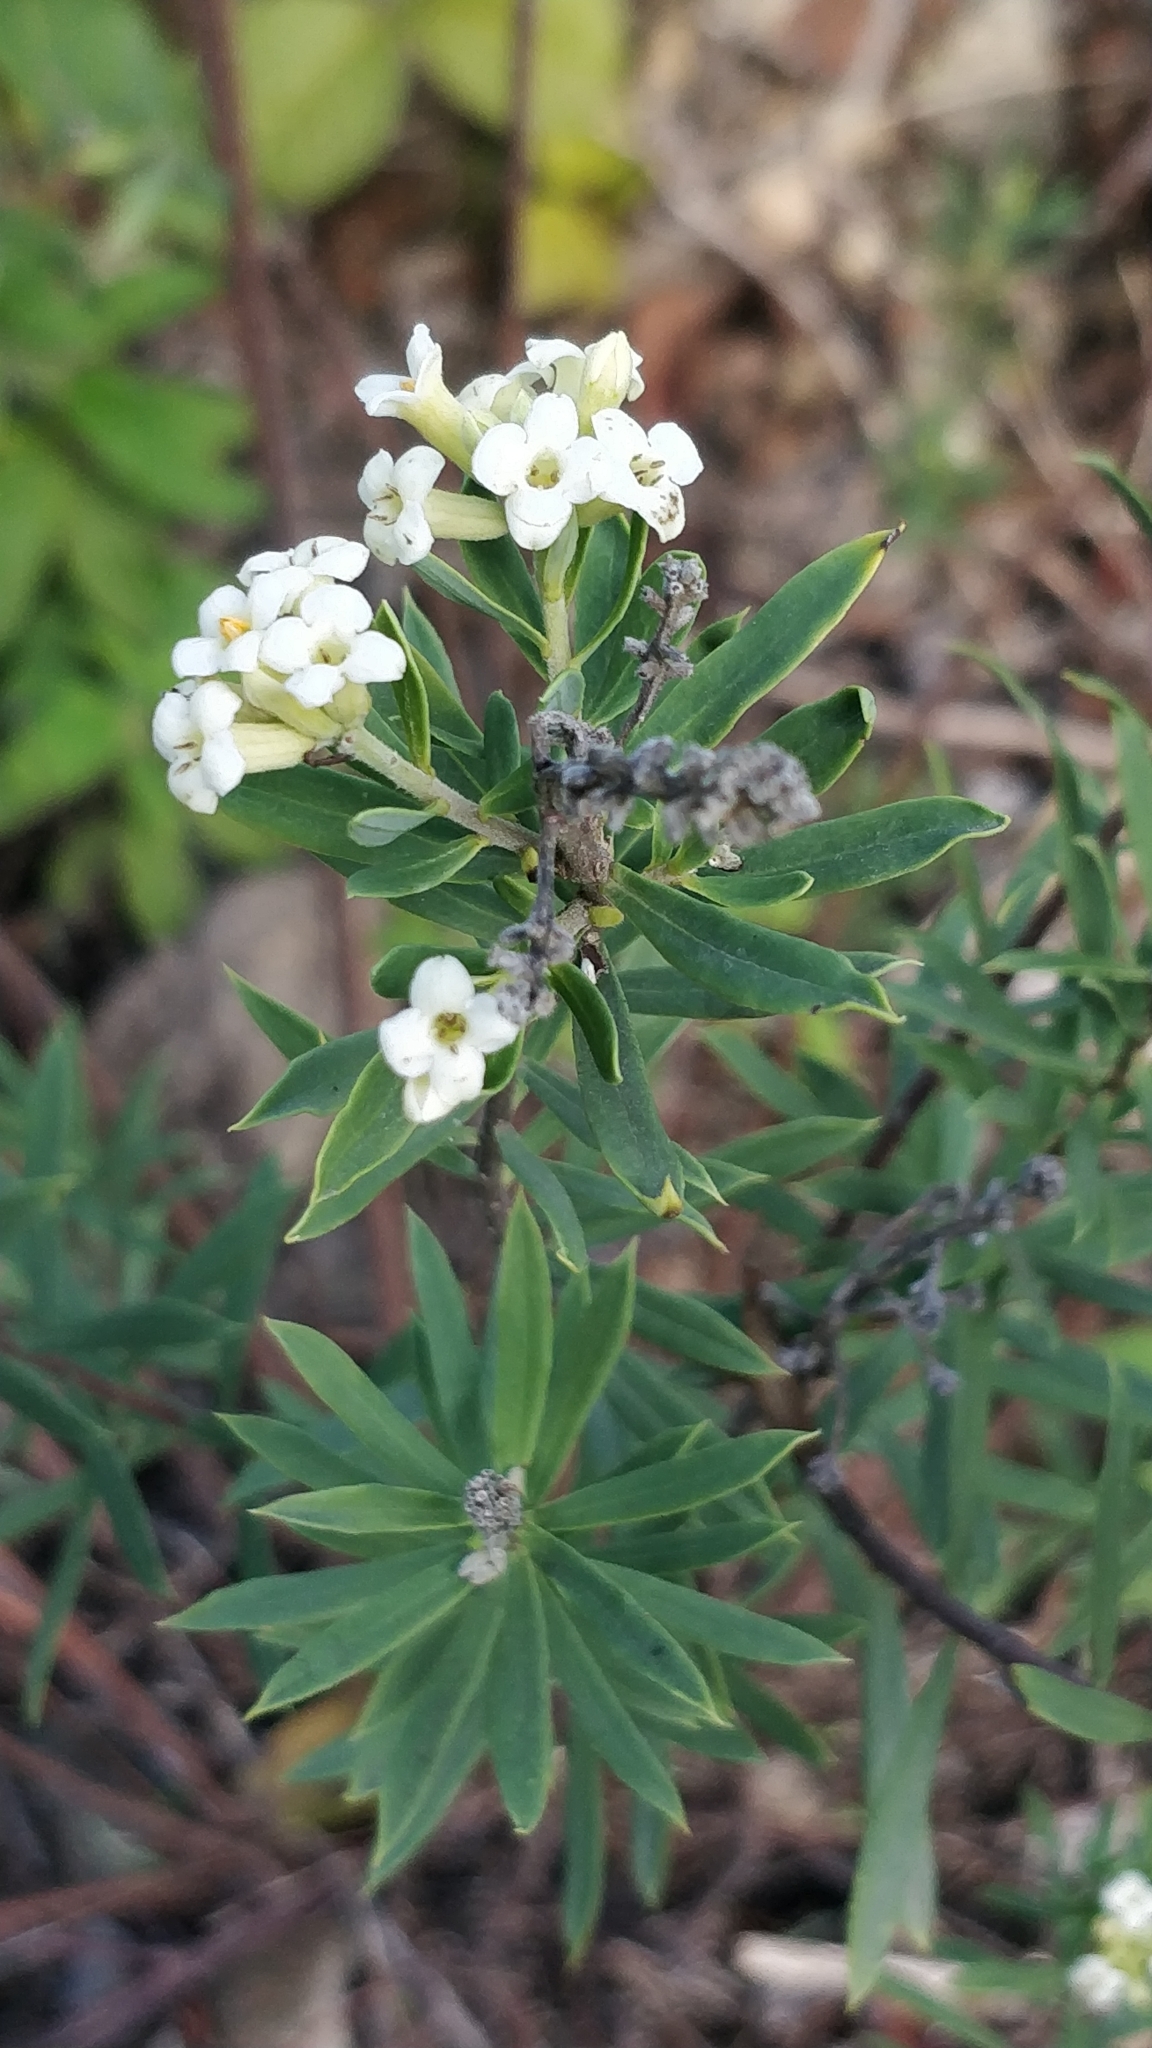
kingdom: Plantae
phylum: Tracheophyta
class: Magnoliopsida
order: Malvales
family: Thymelaeaceae
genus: Daphne
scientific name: Daphne gnidium
